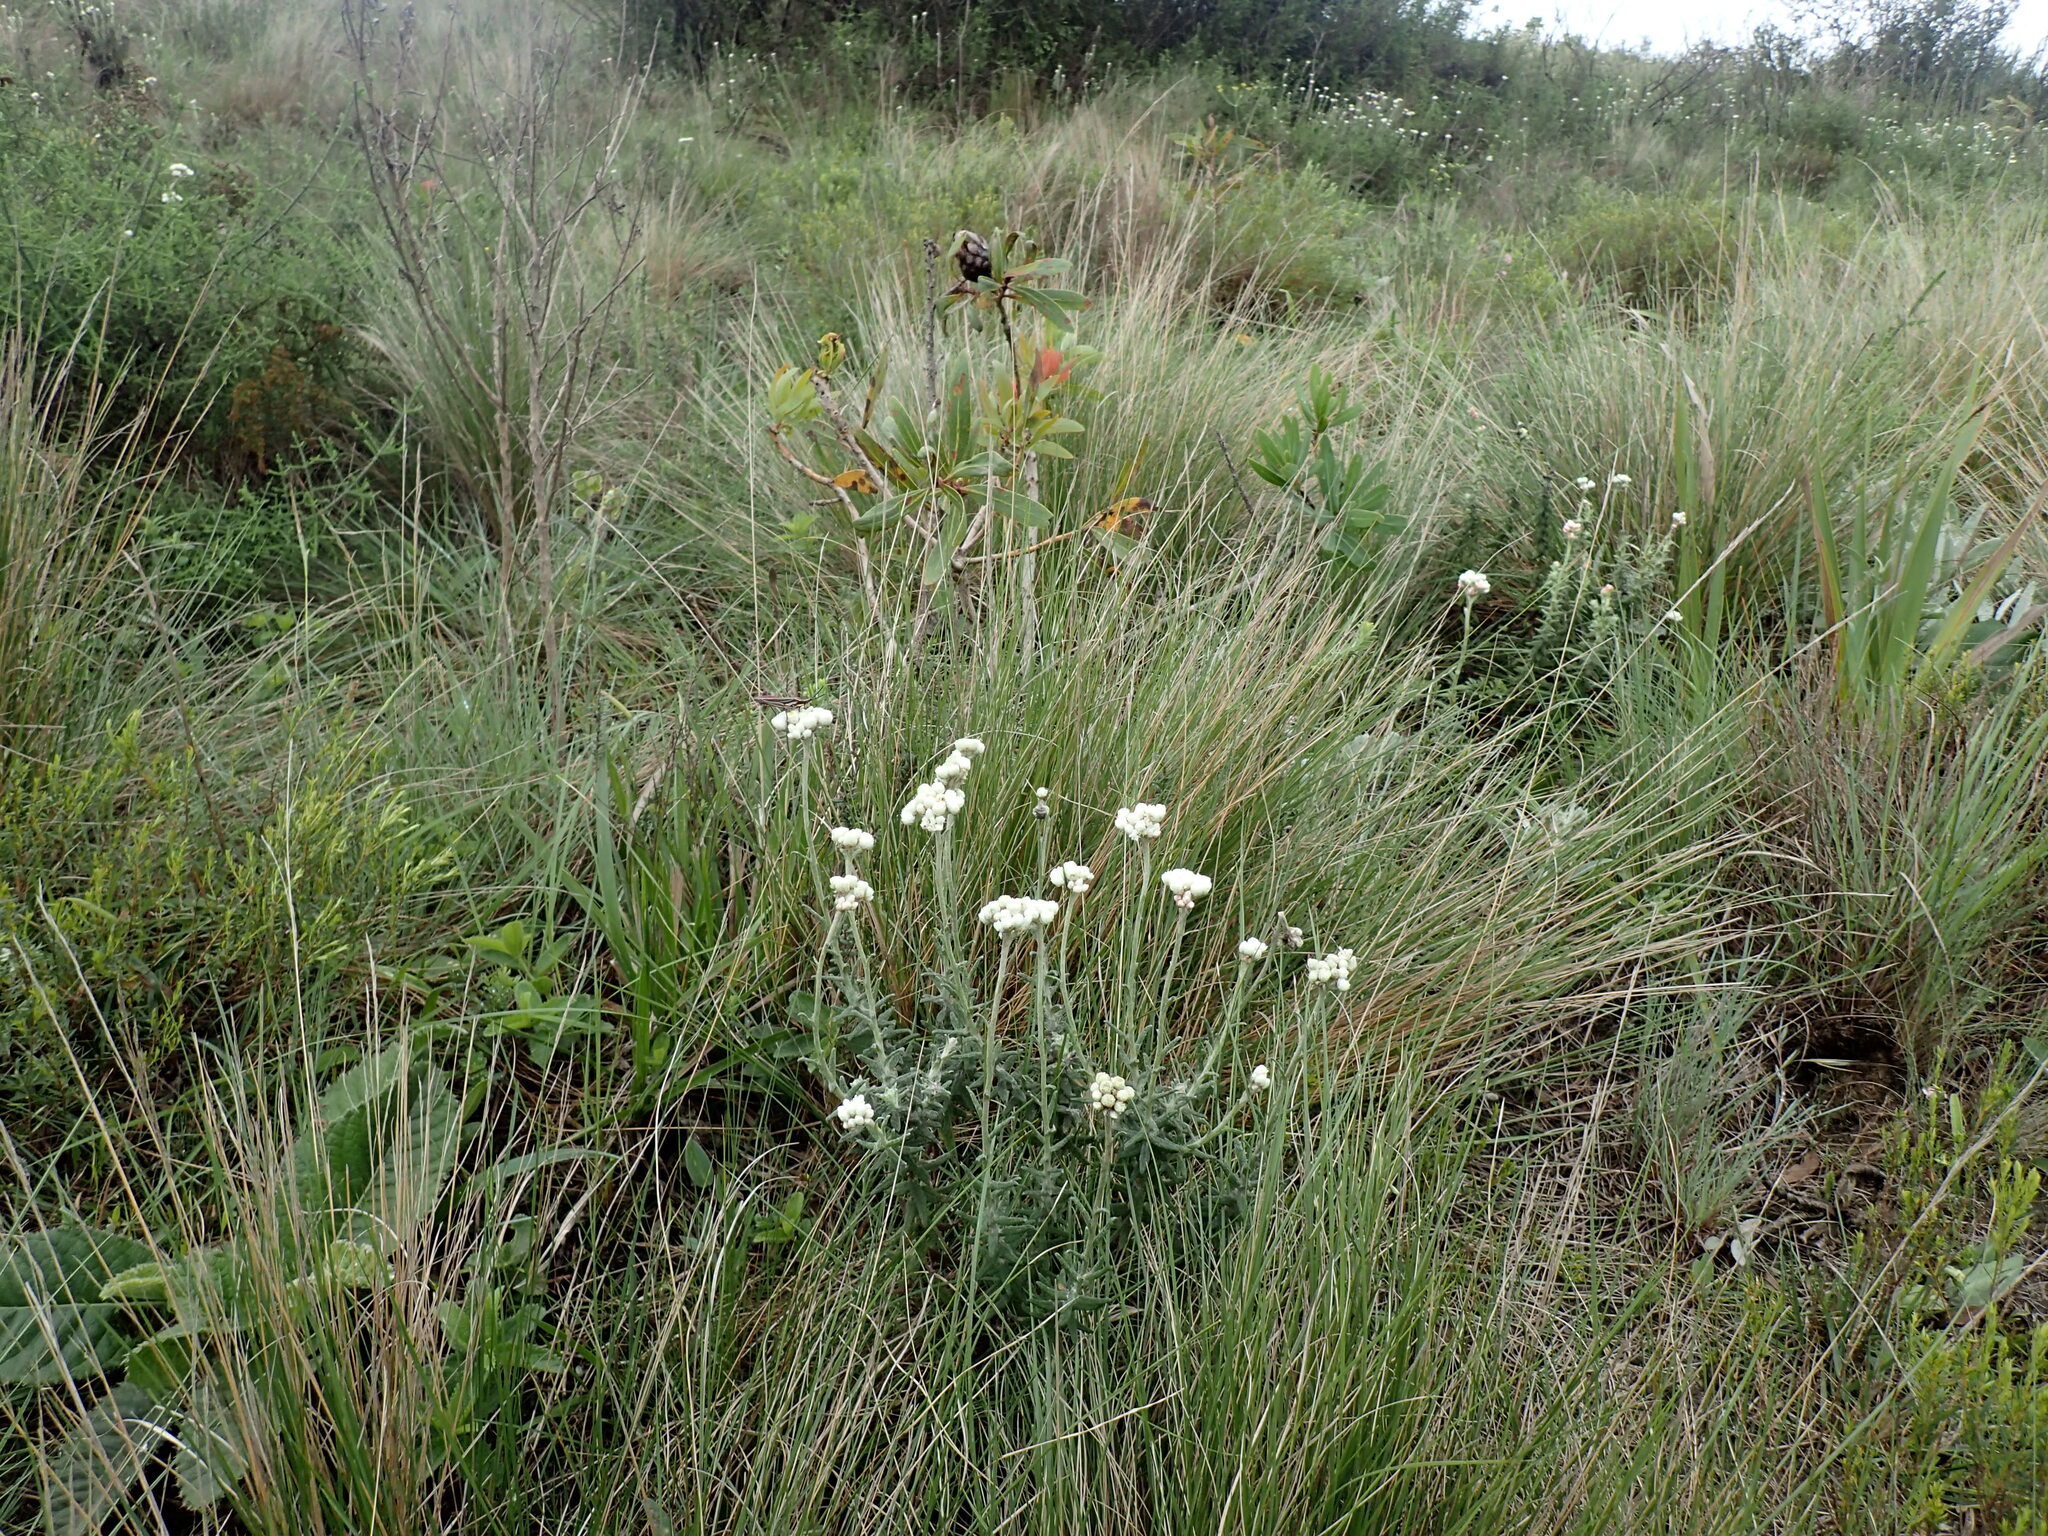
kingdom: Plantae
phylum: Tracheophyta
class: Magnoliopsida
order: Asterales
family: Asteraceae
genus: Helichrysum
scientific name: Helichrysum felinum
